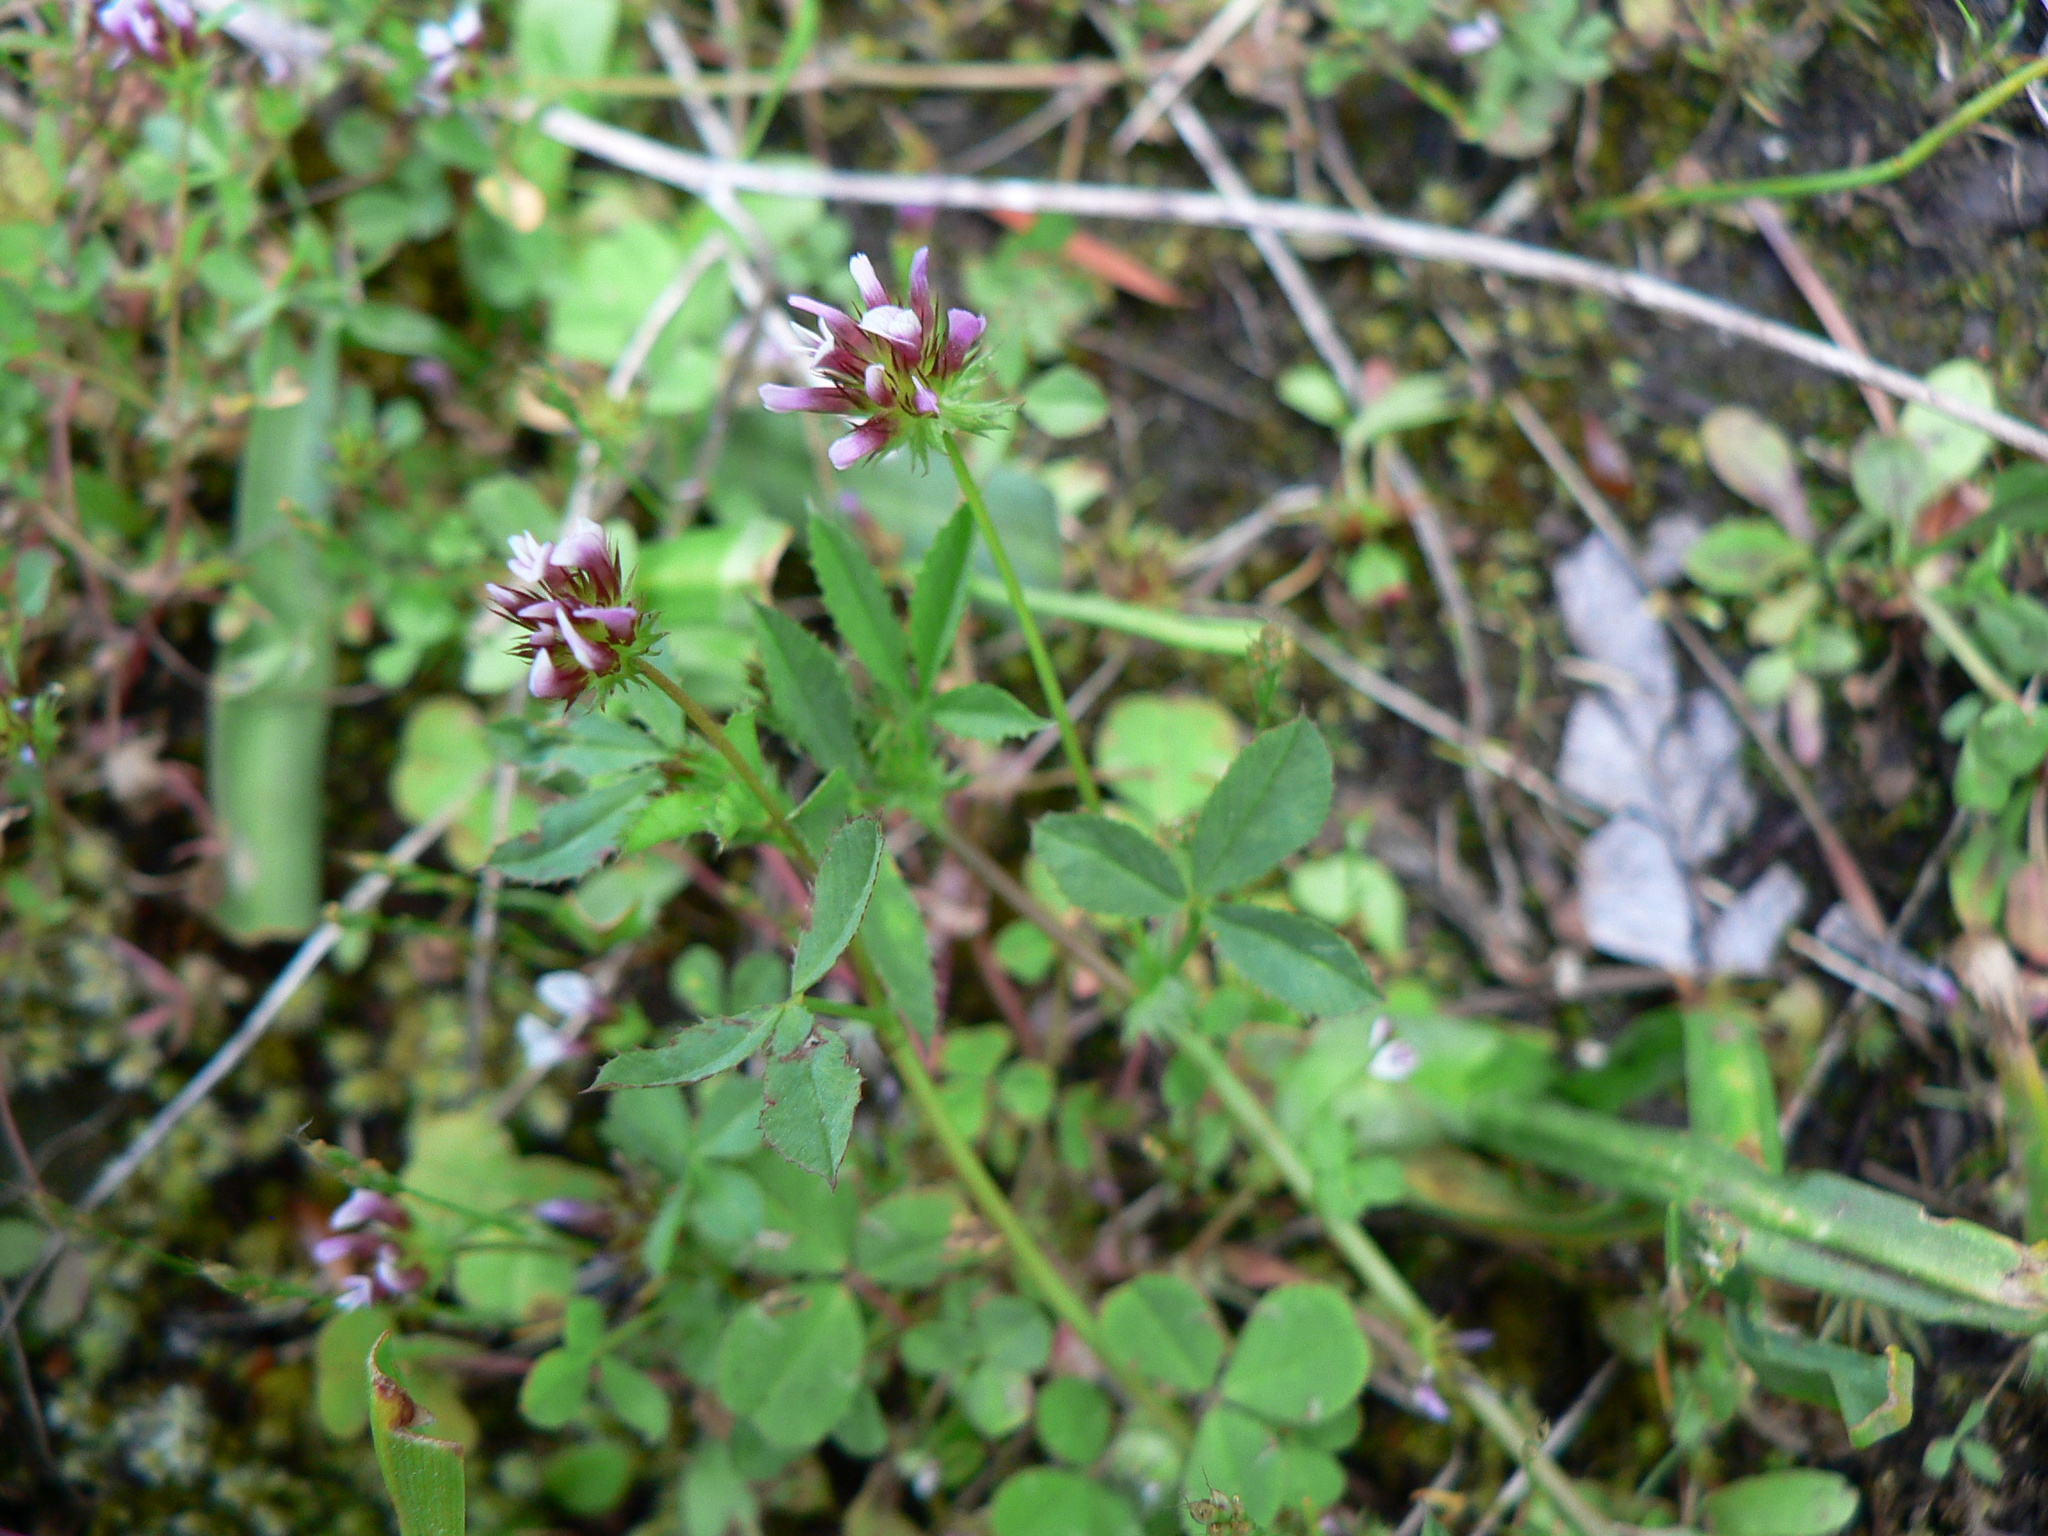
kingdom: Plantae
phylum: Tracheophyta
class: Magnoliopsida
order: Fabales
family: Fabaceae
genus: Trifolium
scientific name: Trifolium variegatum
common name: Whitetip clover
